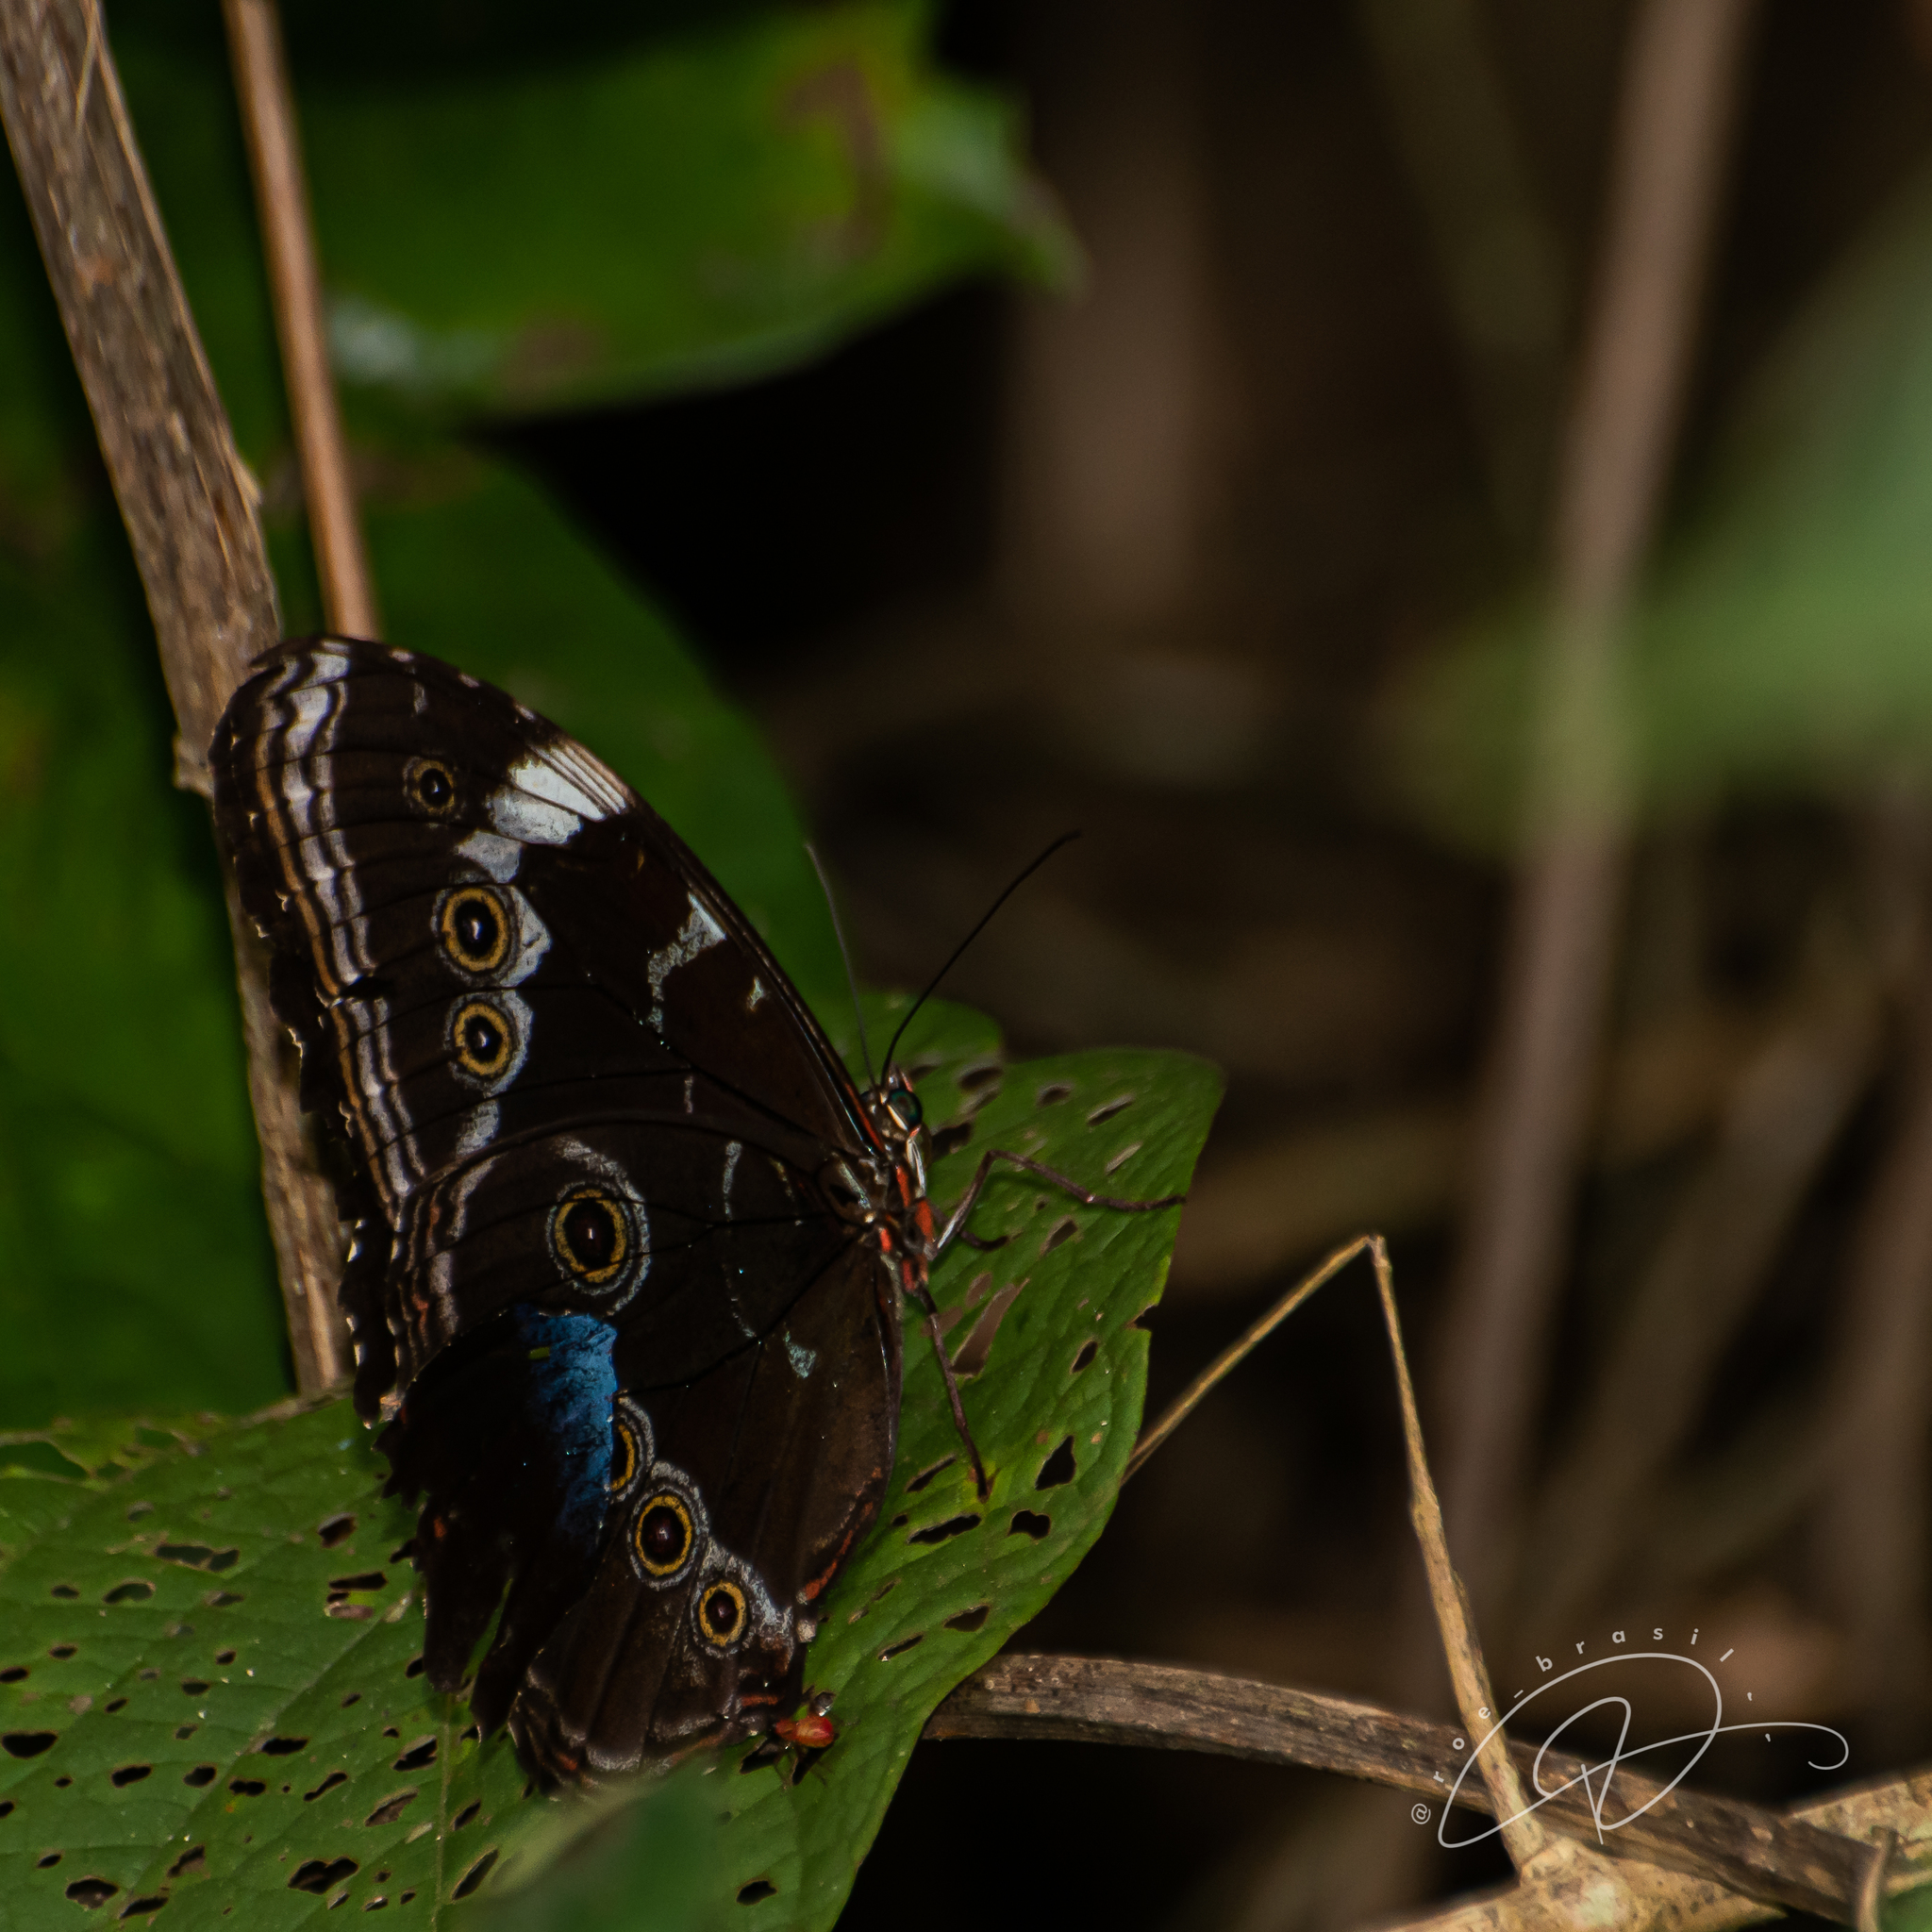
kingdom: Animalia
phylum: Arthropoda
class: Insecta
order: Lepidoptera
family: Nymphalidae
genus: Morpho
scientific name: Morpho helenor
